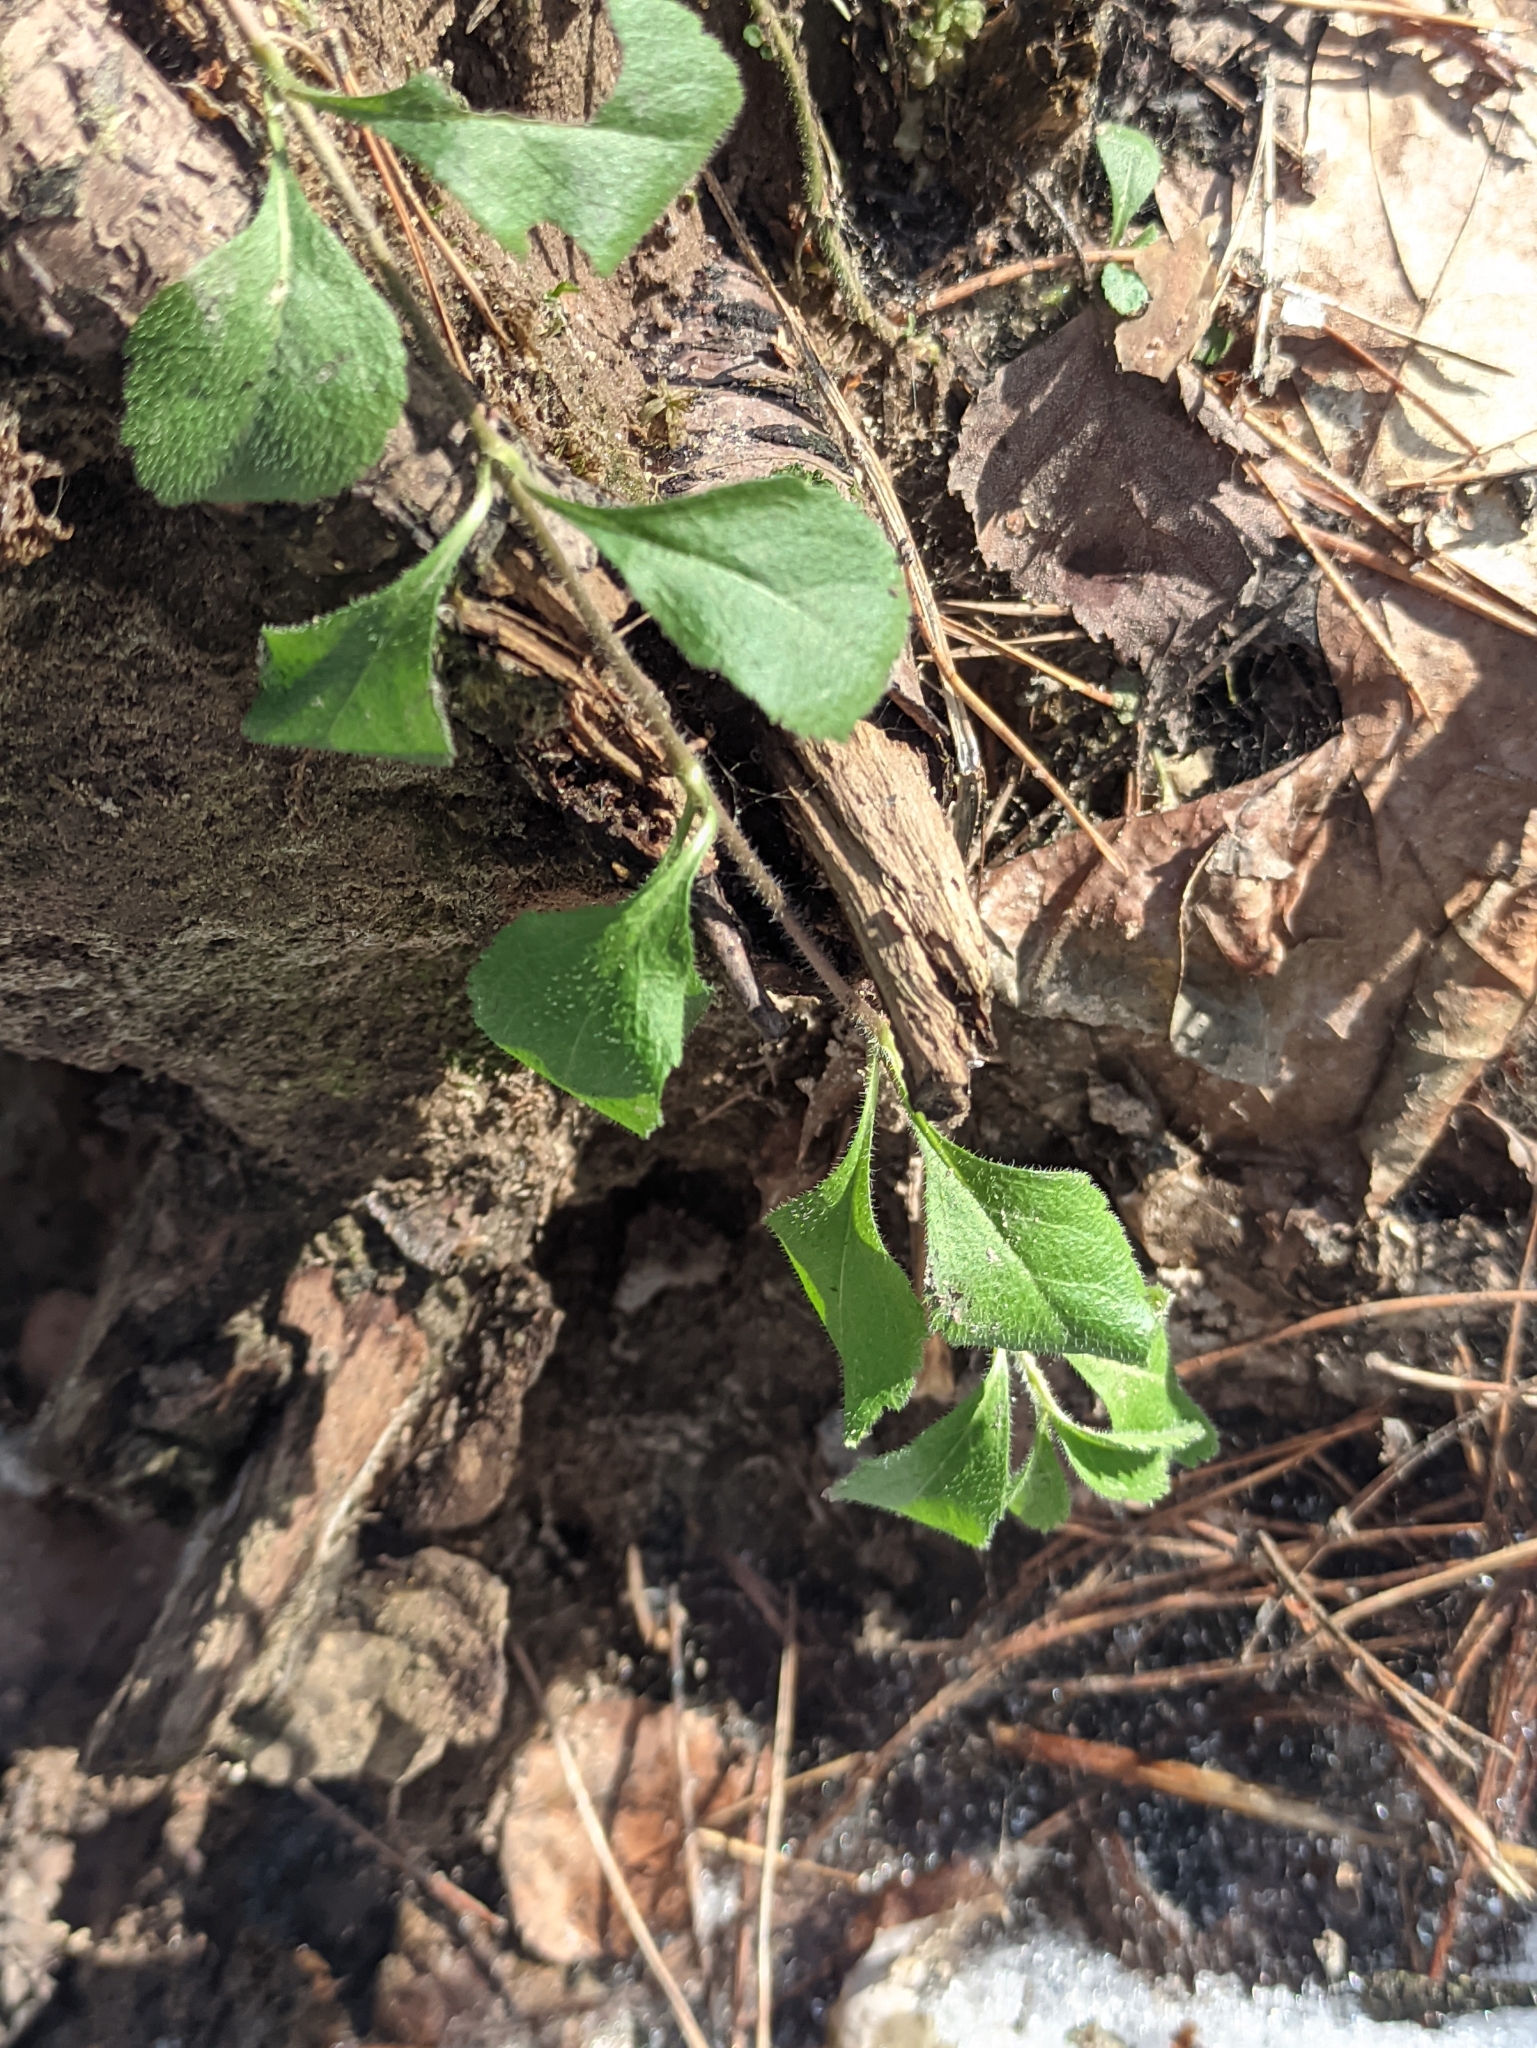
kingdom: Plantae
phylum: Tracheophyta
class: Magnoliopsida
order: Lamiales
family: Plantaginaceae
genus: Veronica
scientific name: Veronica officinalis
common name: Common speedwell
